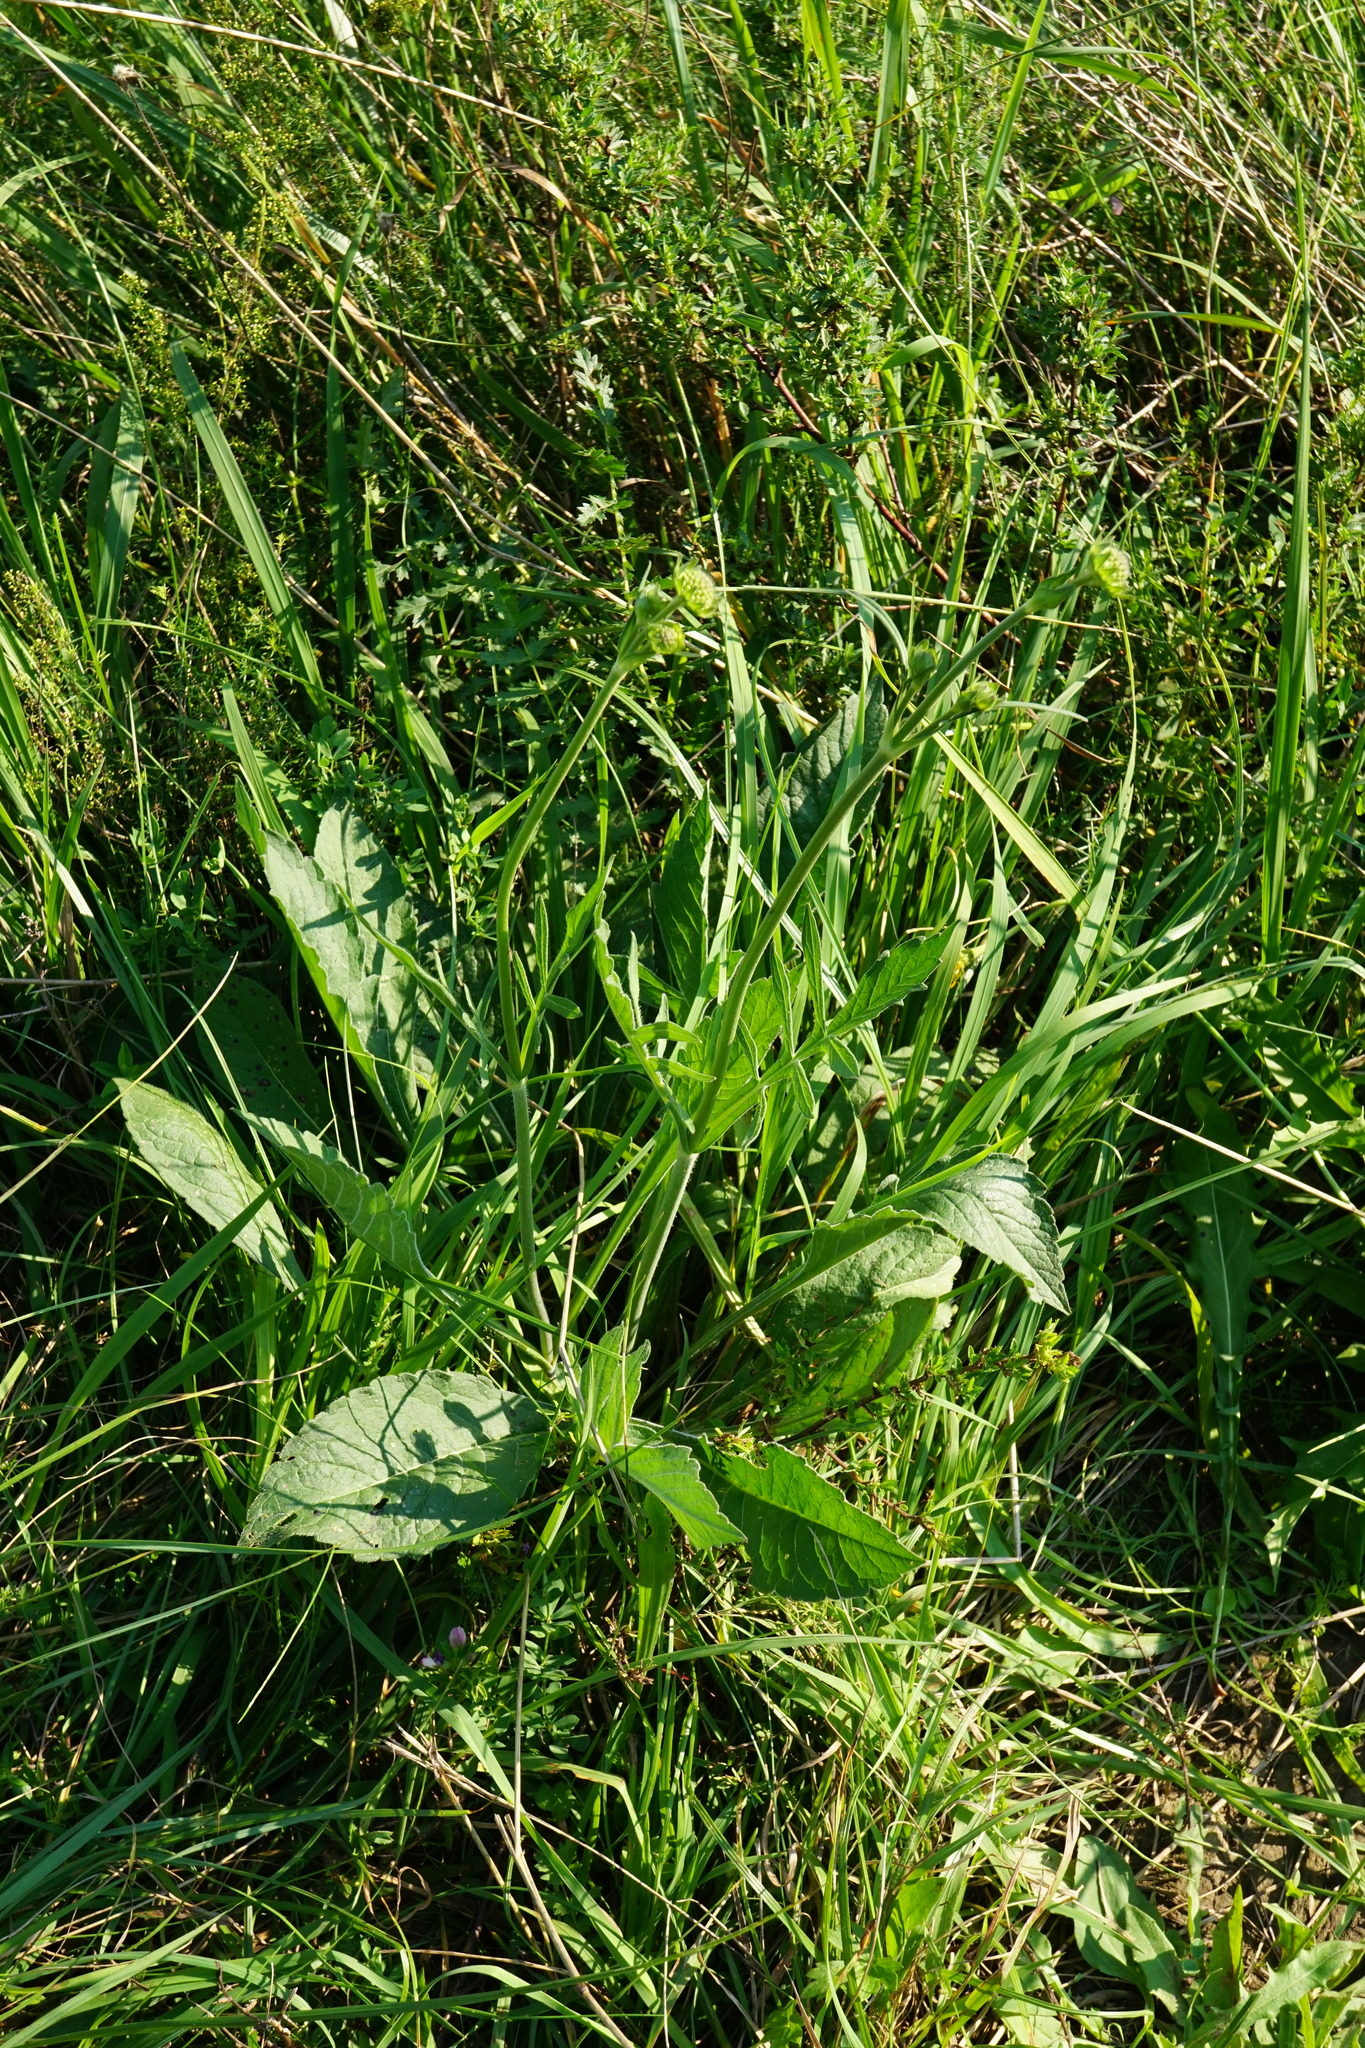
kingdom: Plantae
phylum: Tracheophyta
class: Magnoliopsida
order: Dipsacales
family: Caprifoliaceae
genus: Knautia
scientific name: Knautia arvensis
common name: Field scabiosa
